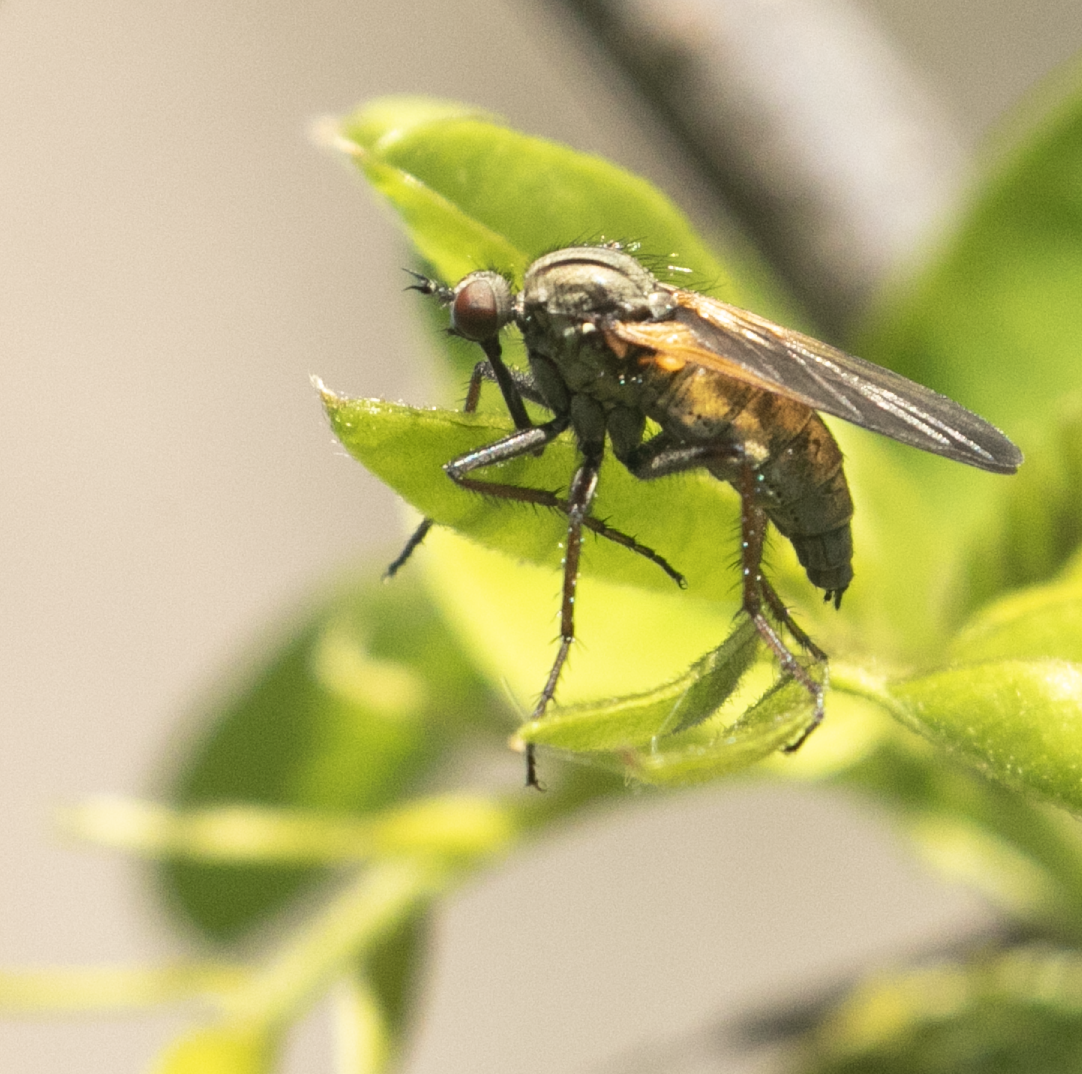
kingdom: Animalia
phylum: Arthropoda
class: Insecta
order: Diptera
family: Empididae
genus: Empis
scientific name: Empis tessellata
